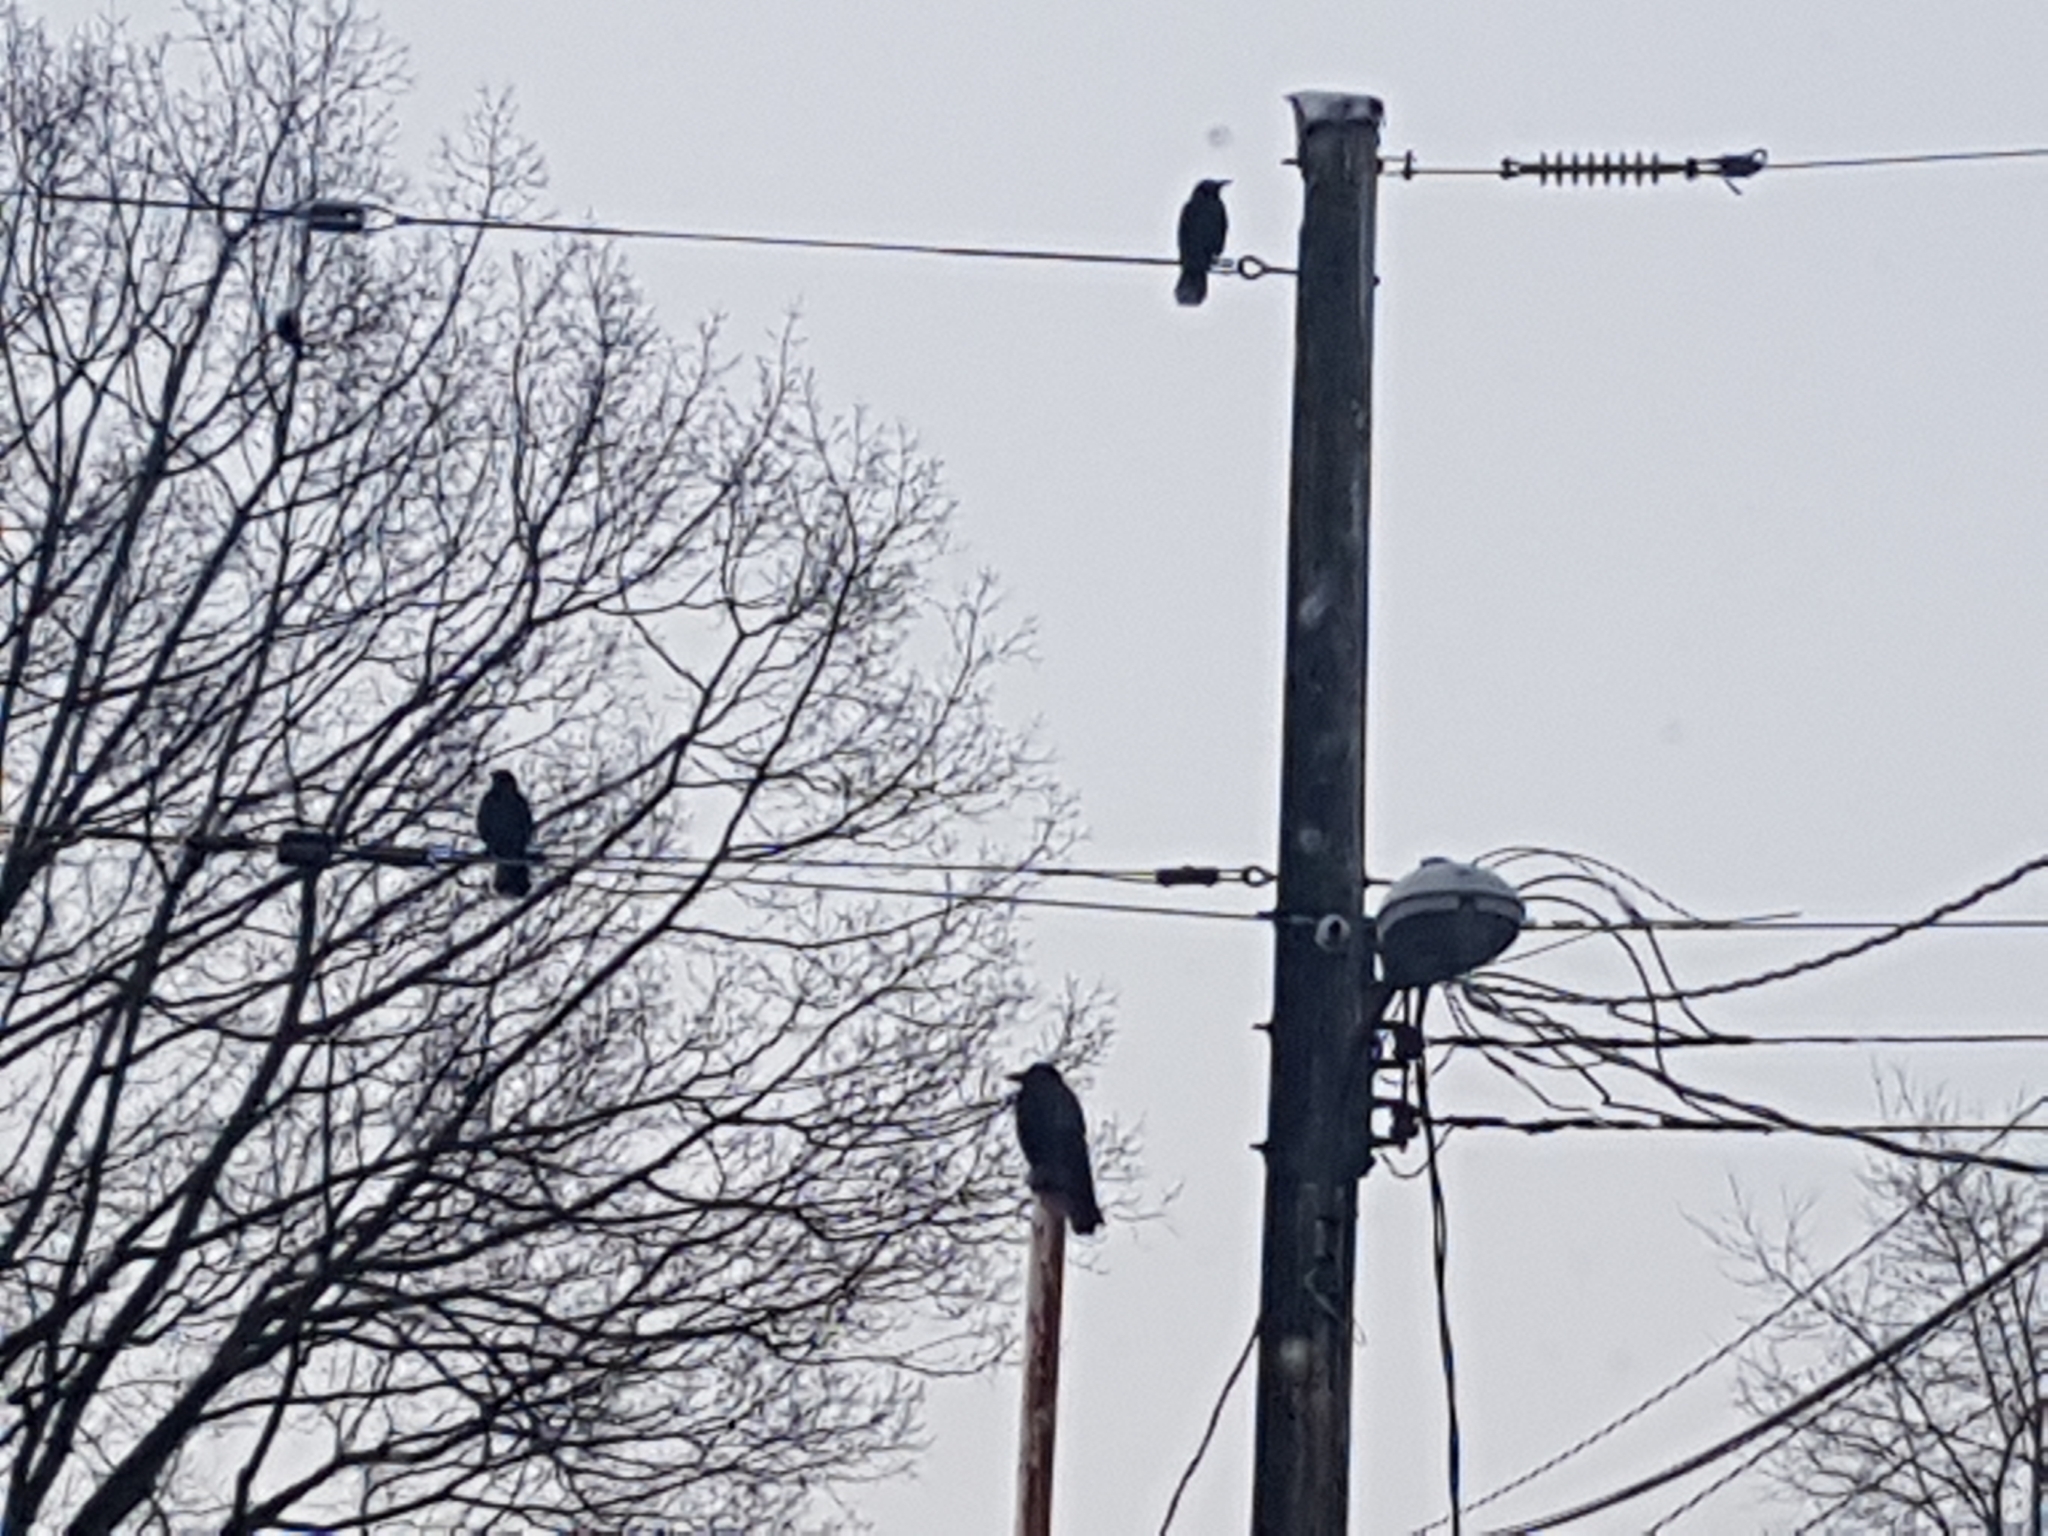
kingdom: Animalia
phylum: Chordata
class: Aves
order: Passeriformes
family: Corvidae
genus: Corvus
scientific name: Corvus brachyrhynchos
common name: American crow
